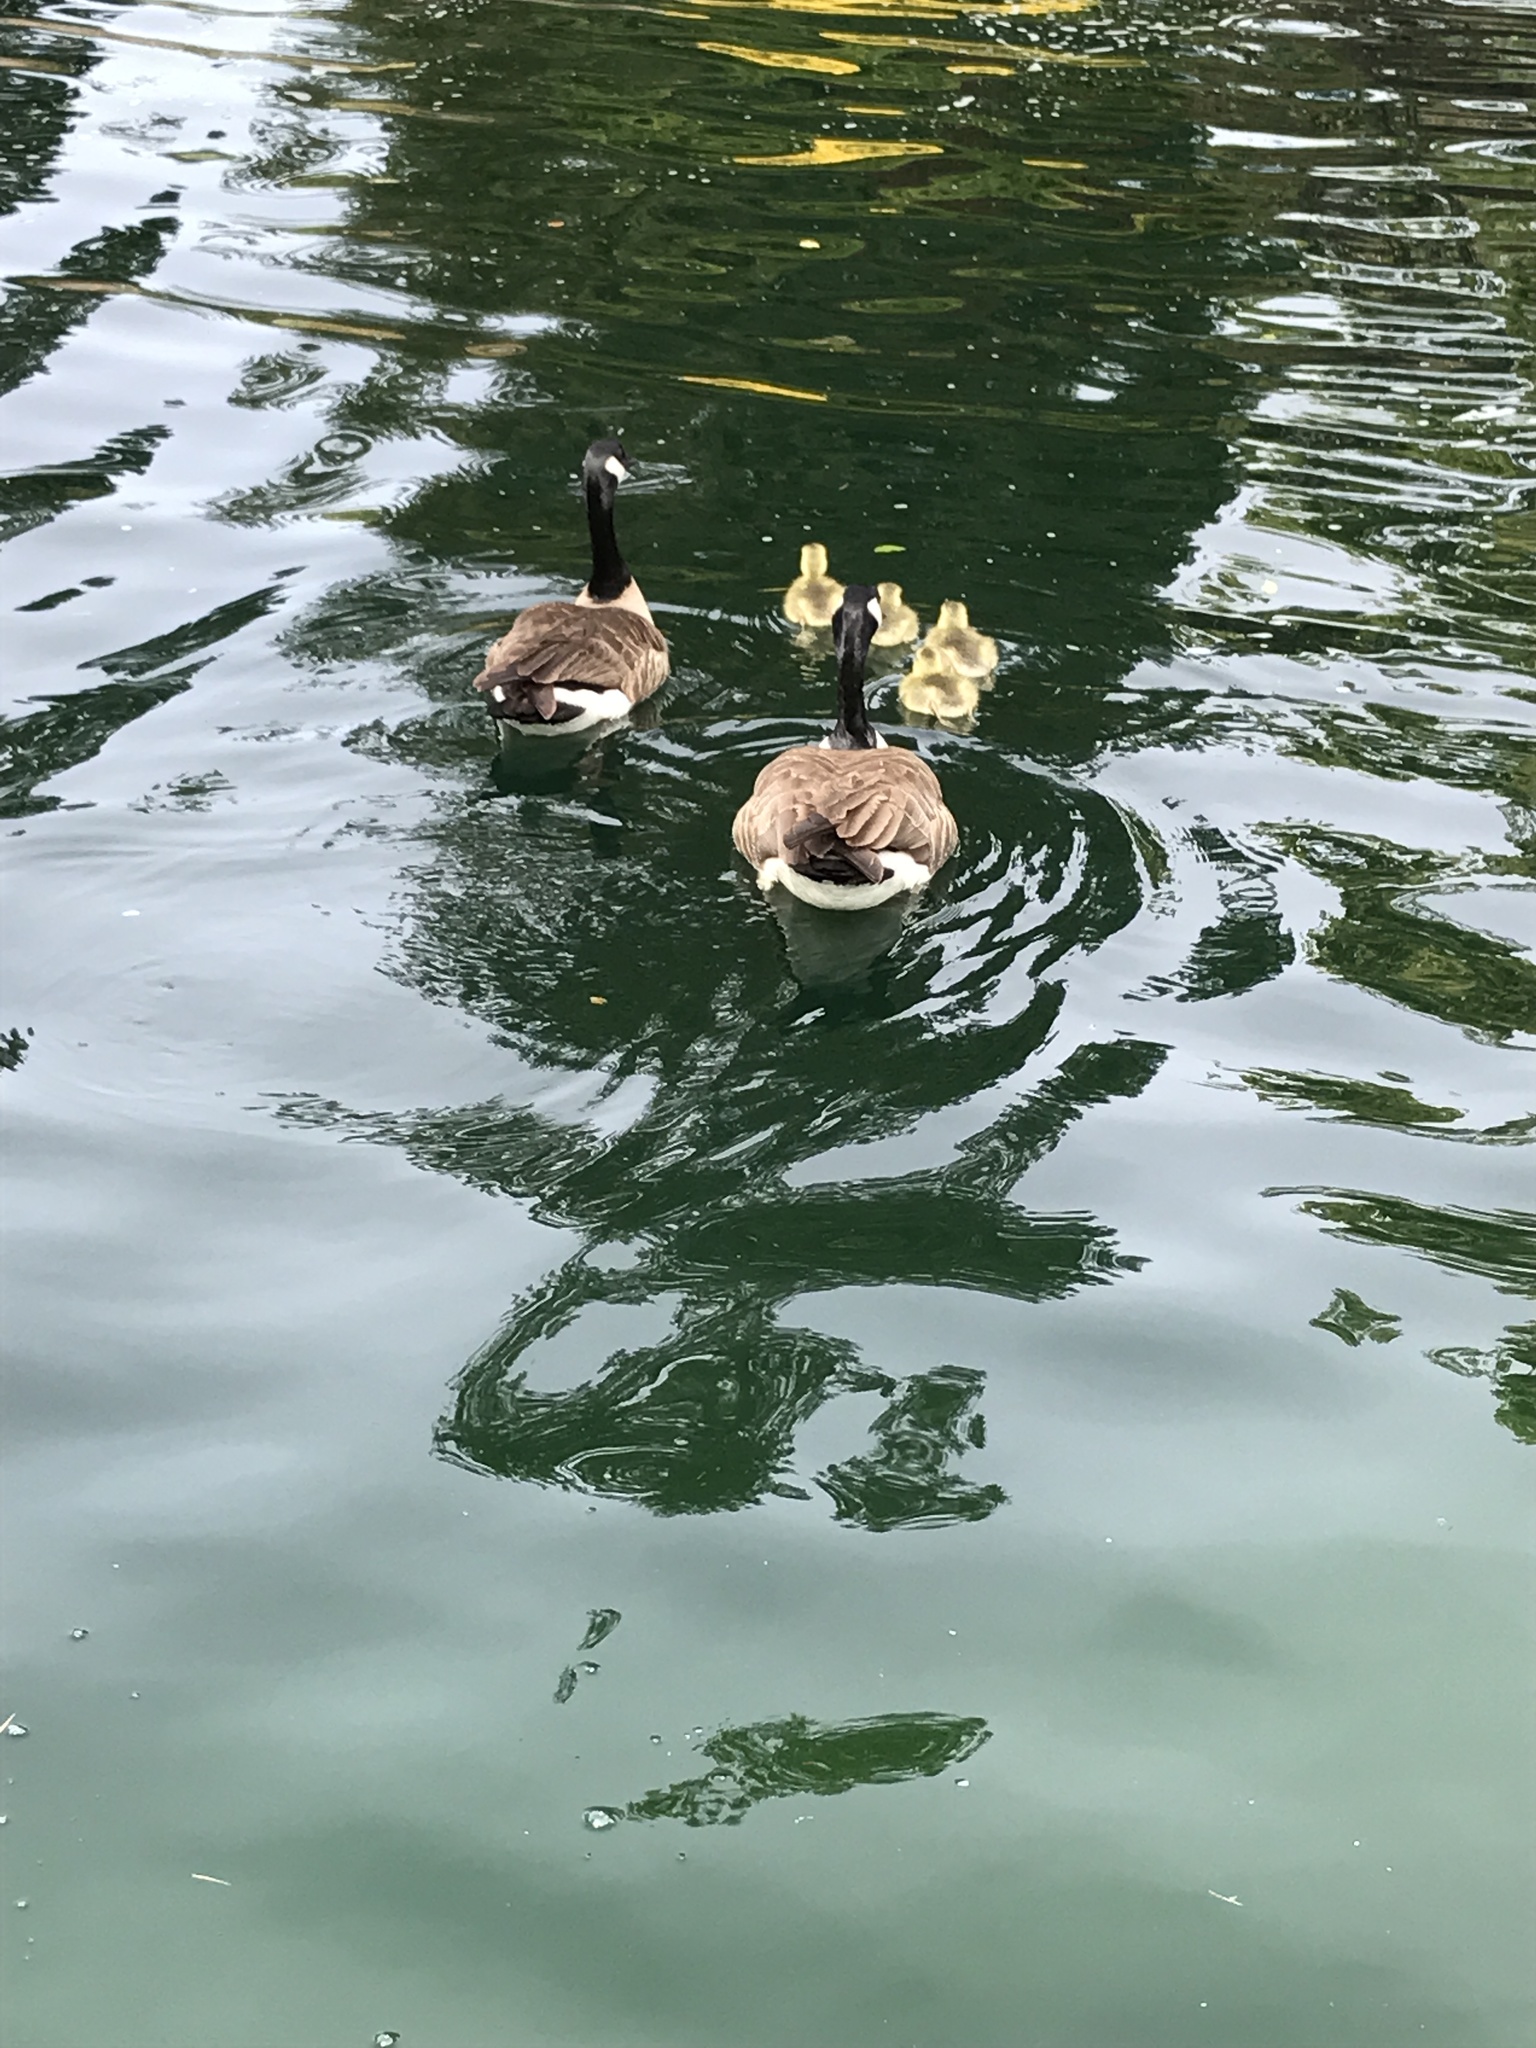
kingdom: Animalia
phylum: Chordata
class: Aves
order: Anseriformes
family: Anatidae
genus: Branta
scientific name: Branta canadensis
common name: Canada goose
